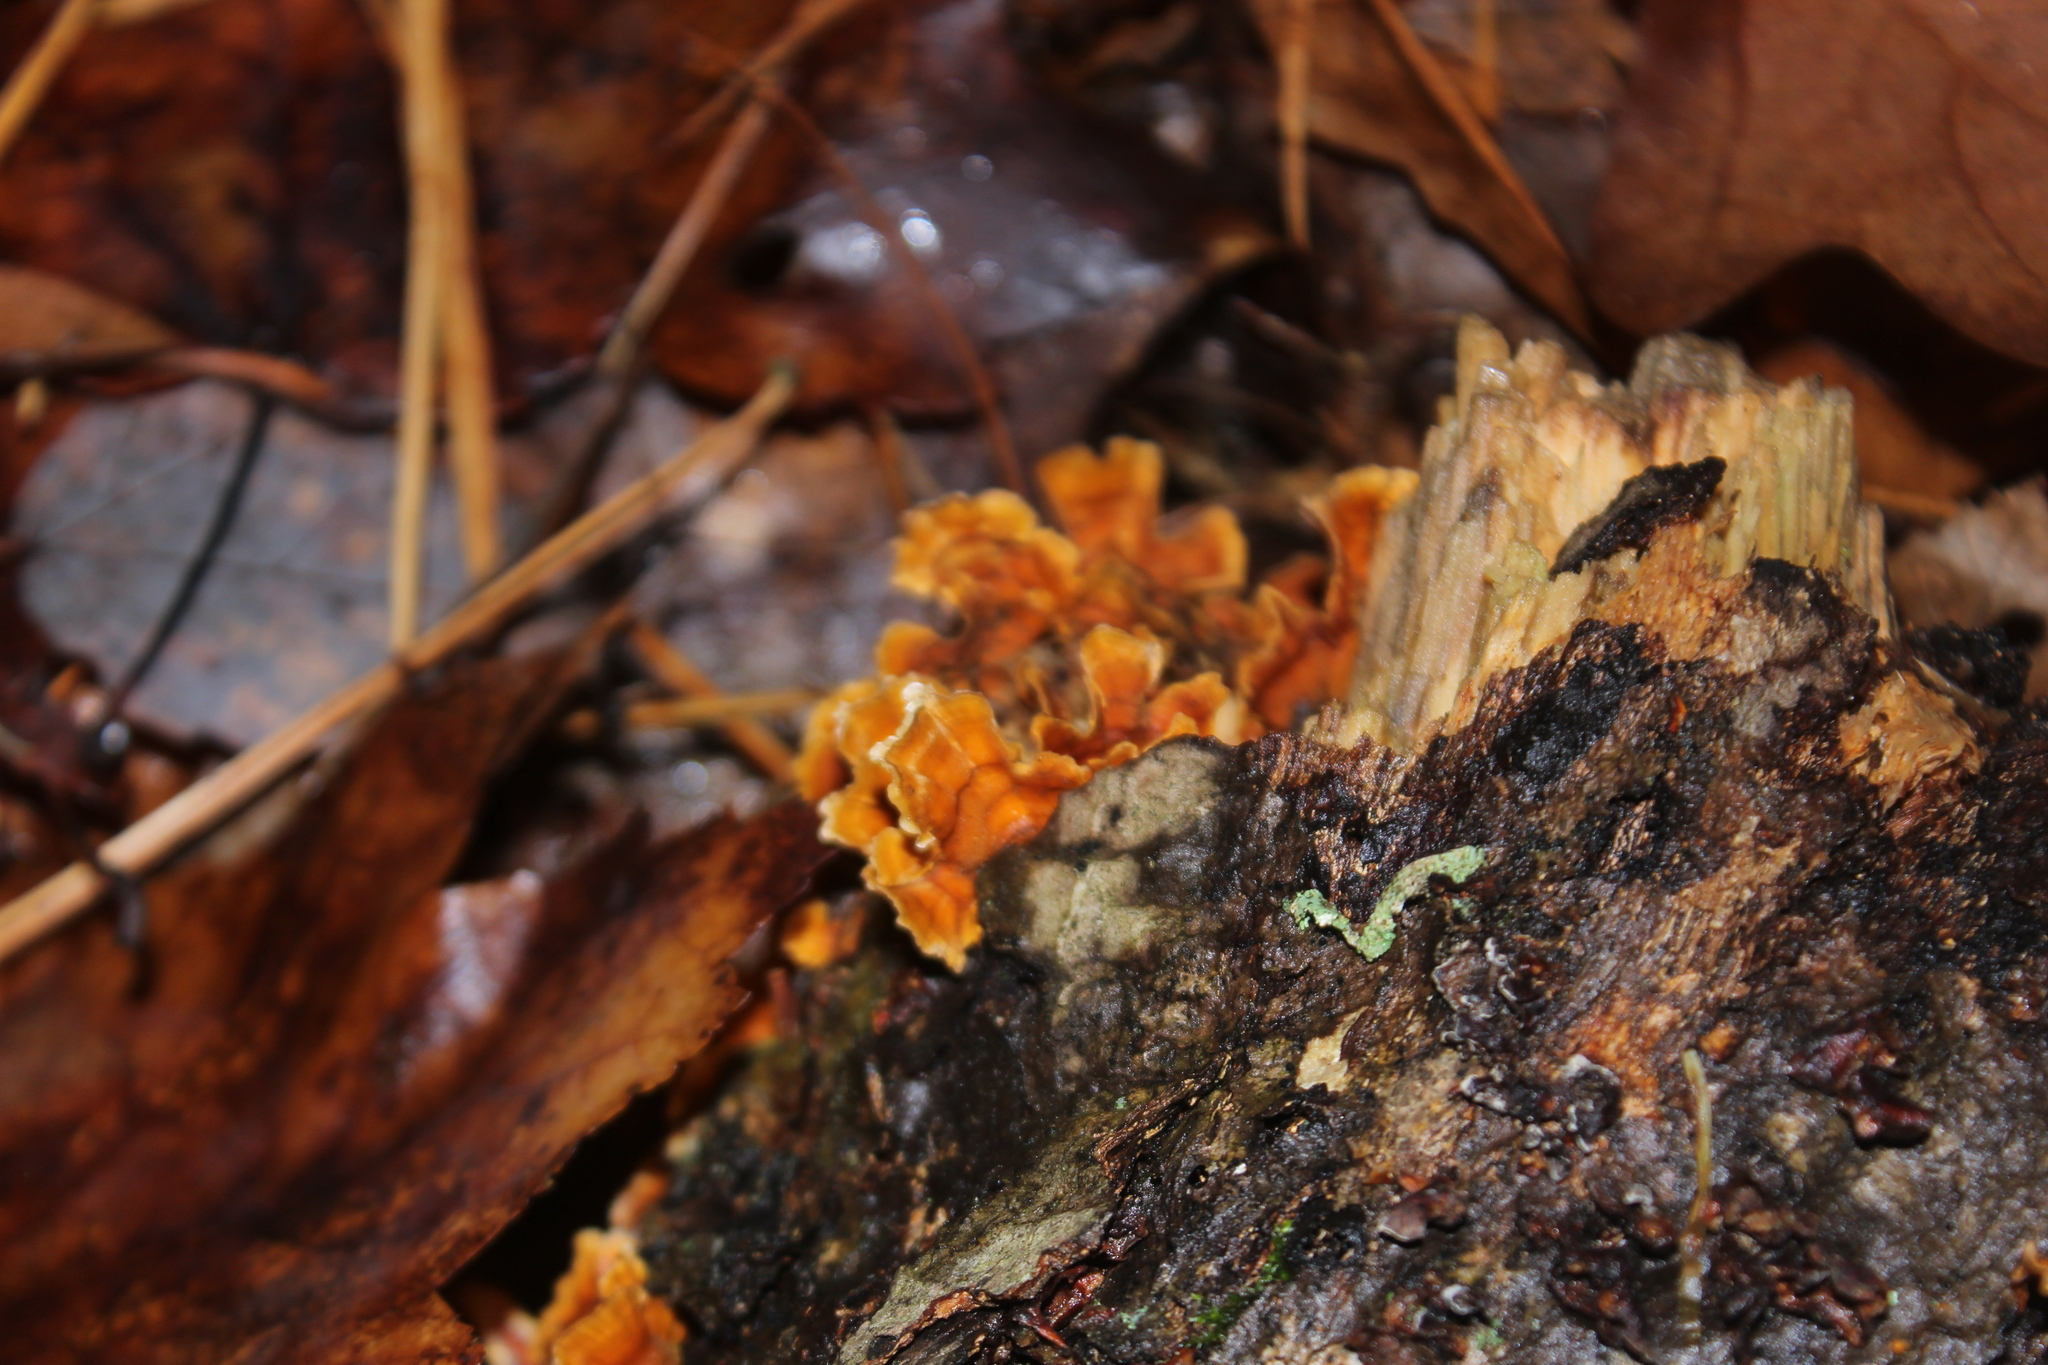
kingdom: Fungi
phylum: Basidiomycota
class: Agaricomycetes
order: Russulales
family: Stereaceae
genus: Stereum
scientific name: Stereum complicatum
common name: Crowded parchment
